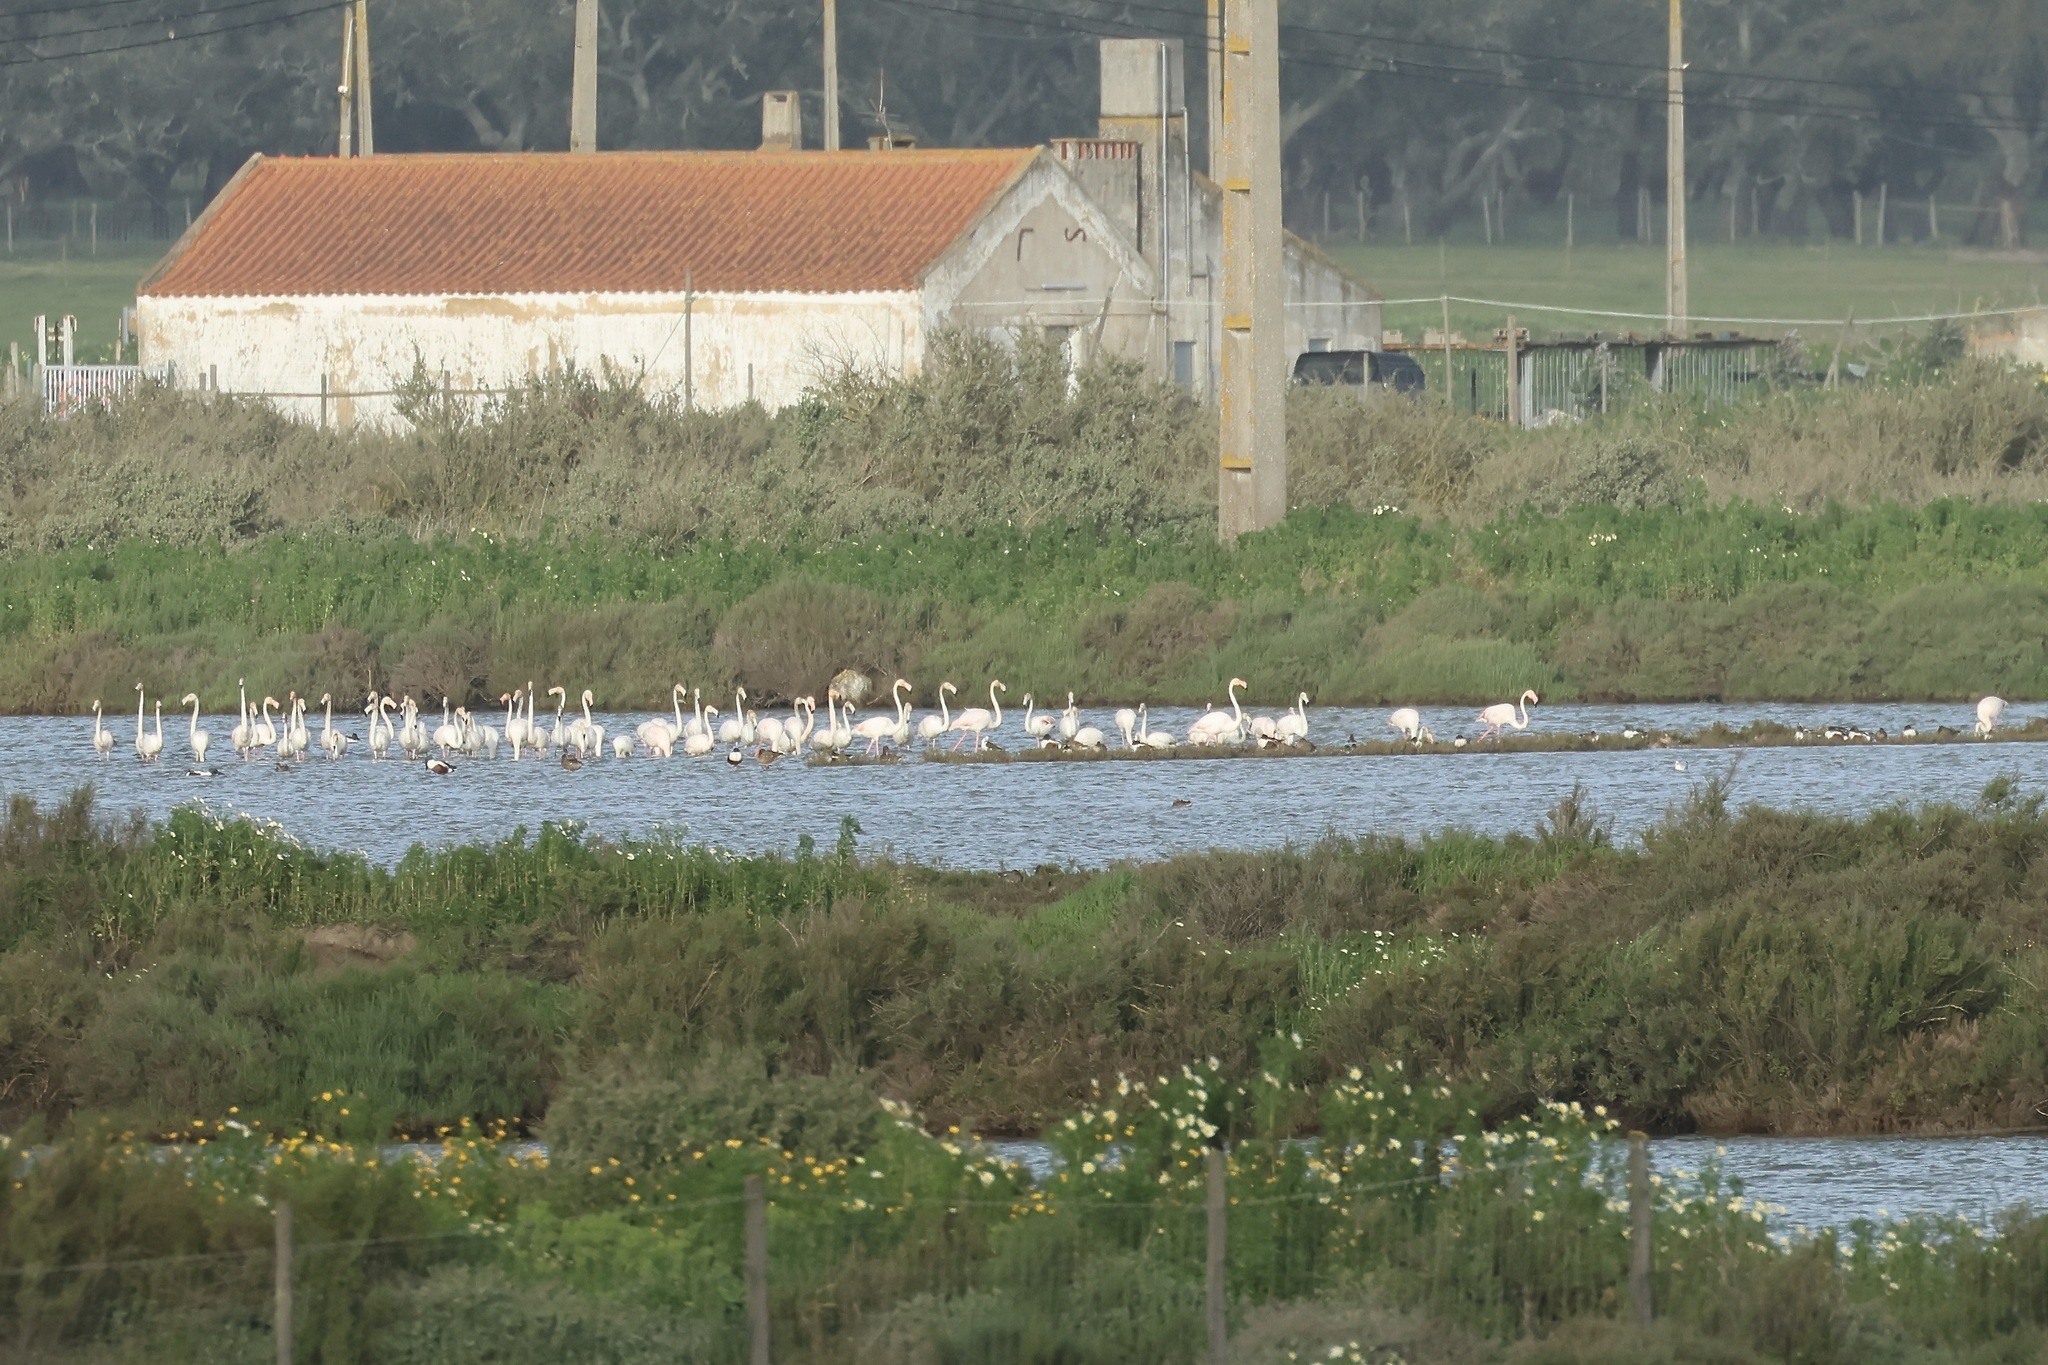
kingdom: Animalia
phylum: Chordata
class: Aves
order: Phoenicopteriformes
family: Phoenicopteridae
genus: Phoenicopterus
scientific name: Phoenicopterus roseus
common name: Greater flamingo
